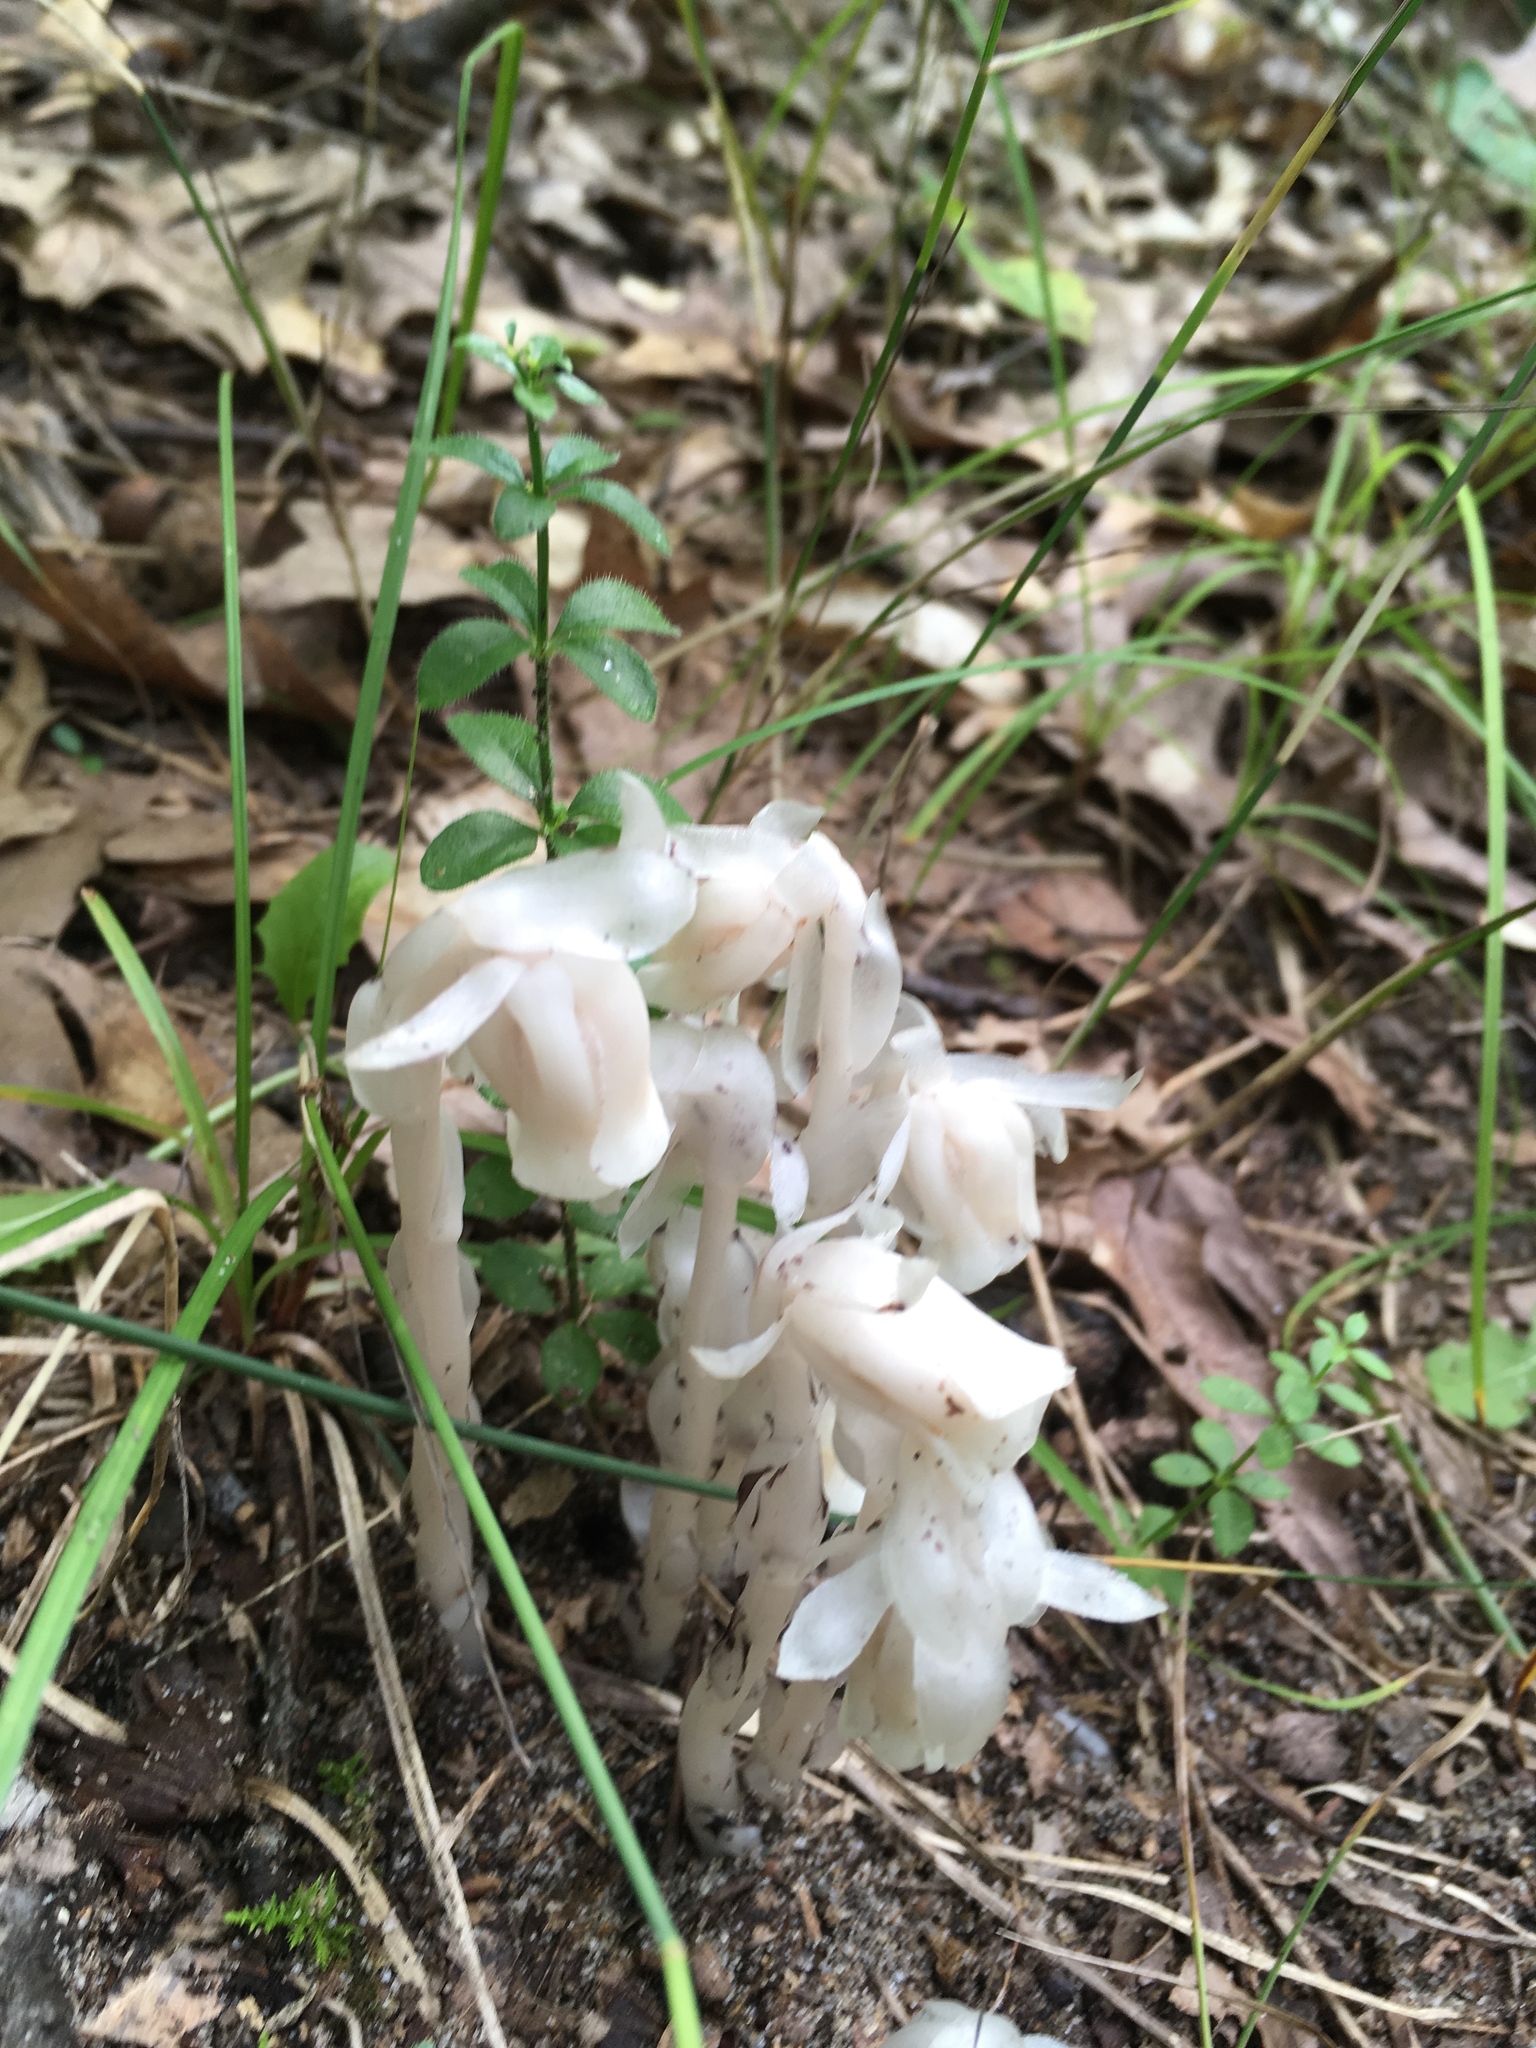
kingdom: Plantae
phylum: Tracheophyta
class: Magnoliopsida
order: Ericales
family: Ericaceae
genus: Monotropa
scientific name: Monotropa uniflora
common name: Convulsion root
